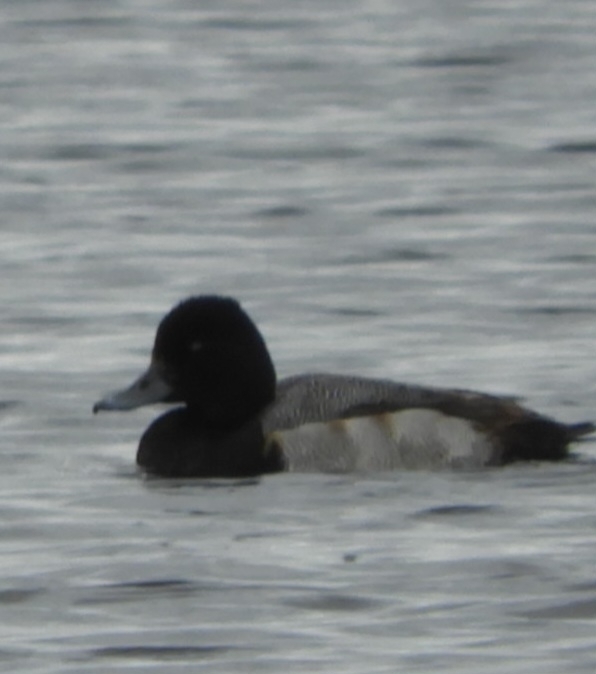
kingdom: Animalia
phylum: Chordata
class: Aves
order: Anseriformes
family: Anatidae
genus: Aythya
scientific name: Aythya affinis
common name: Lesser scaup
